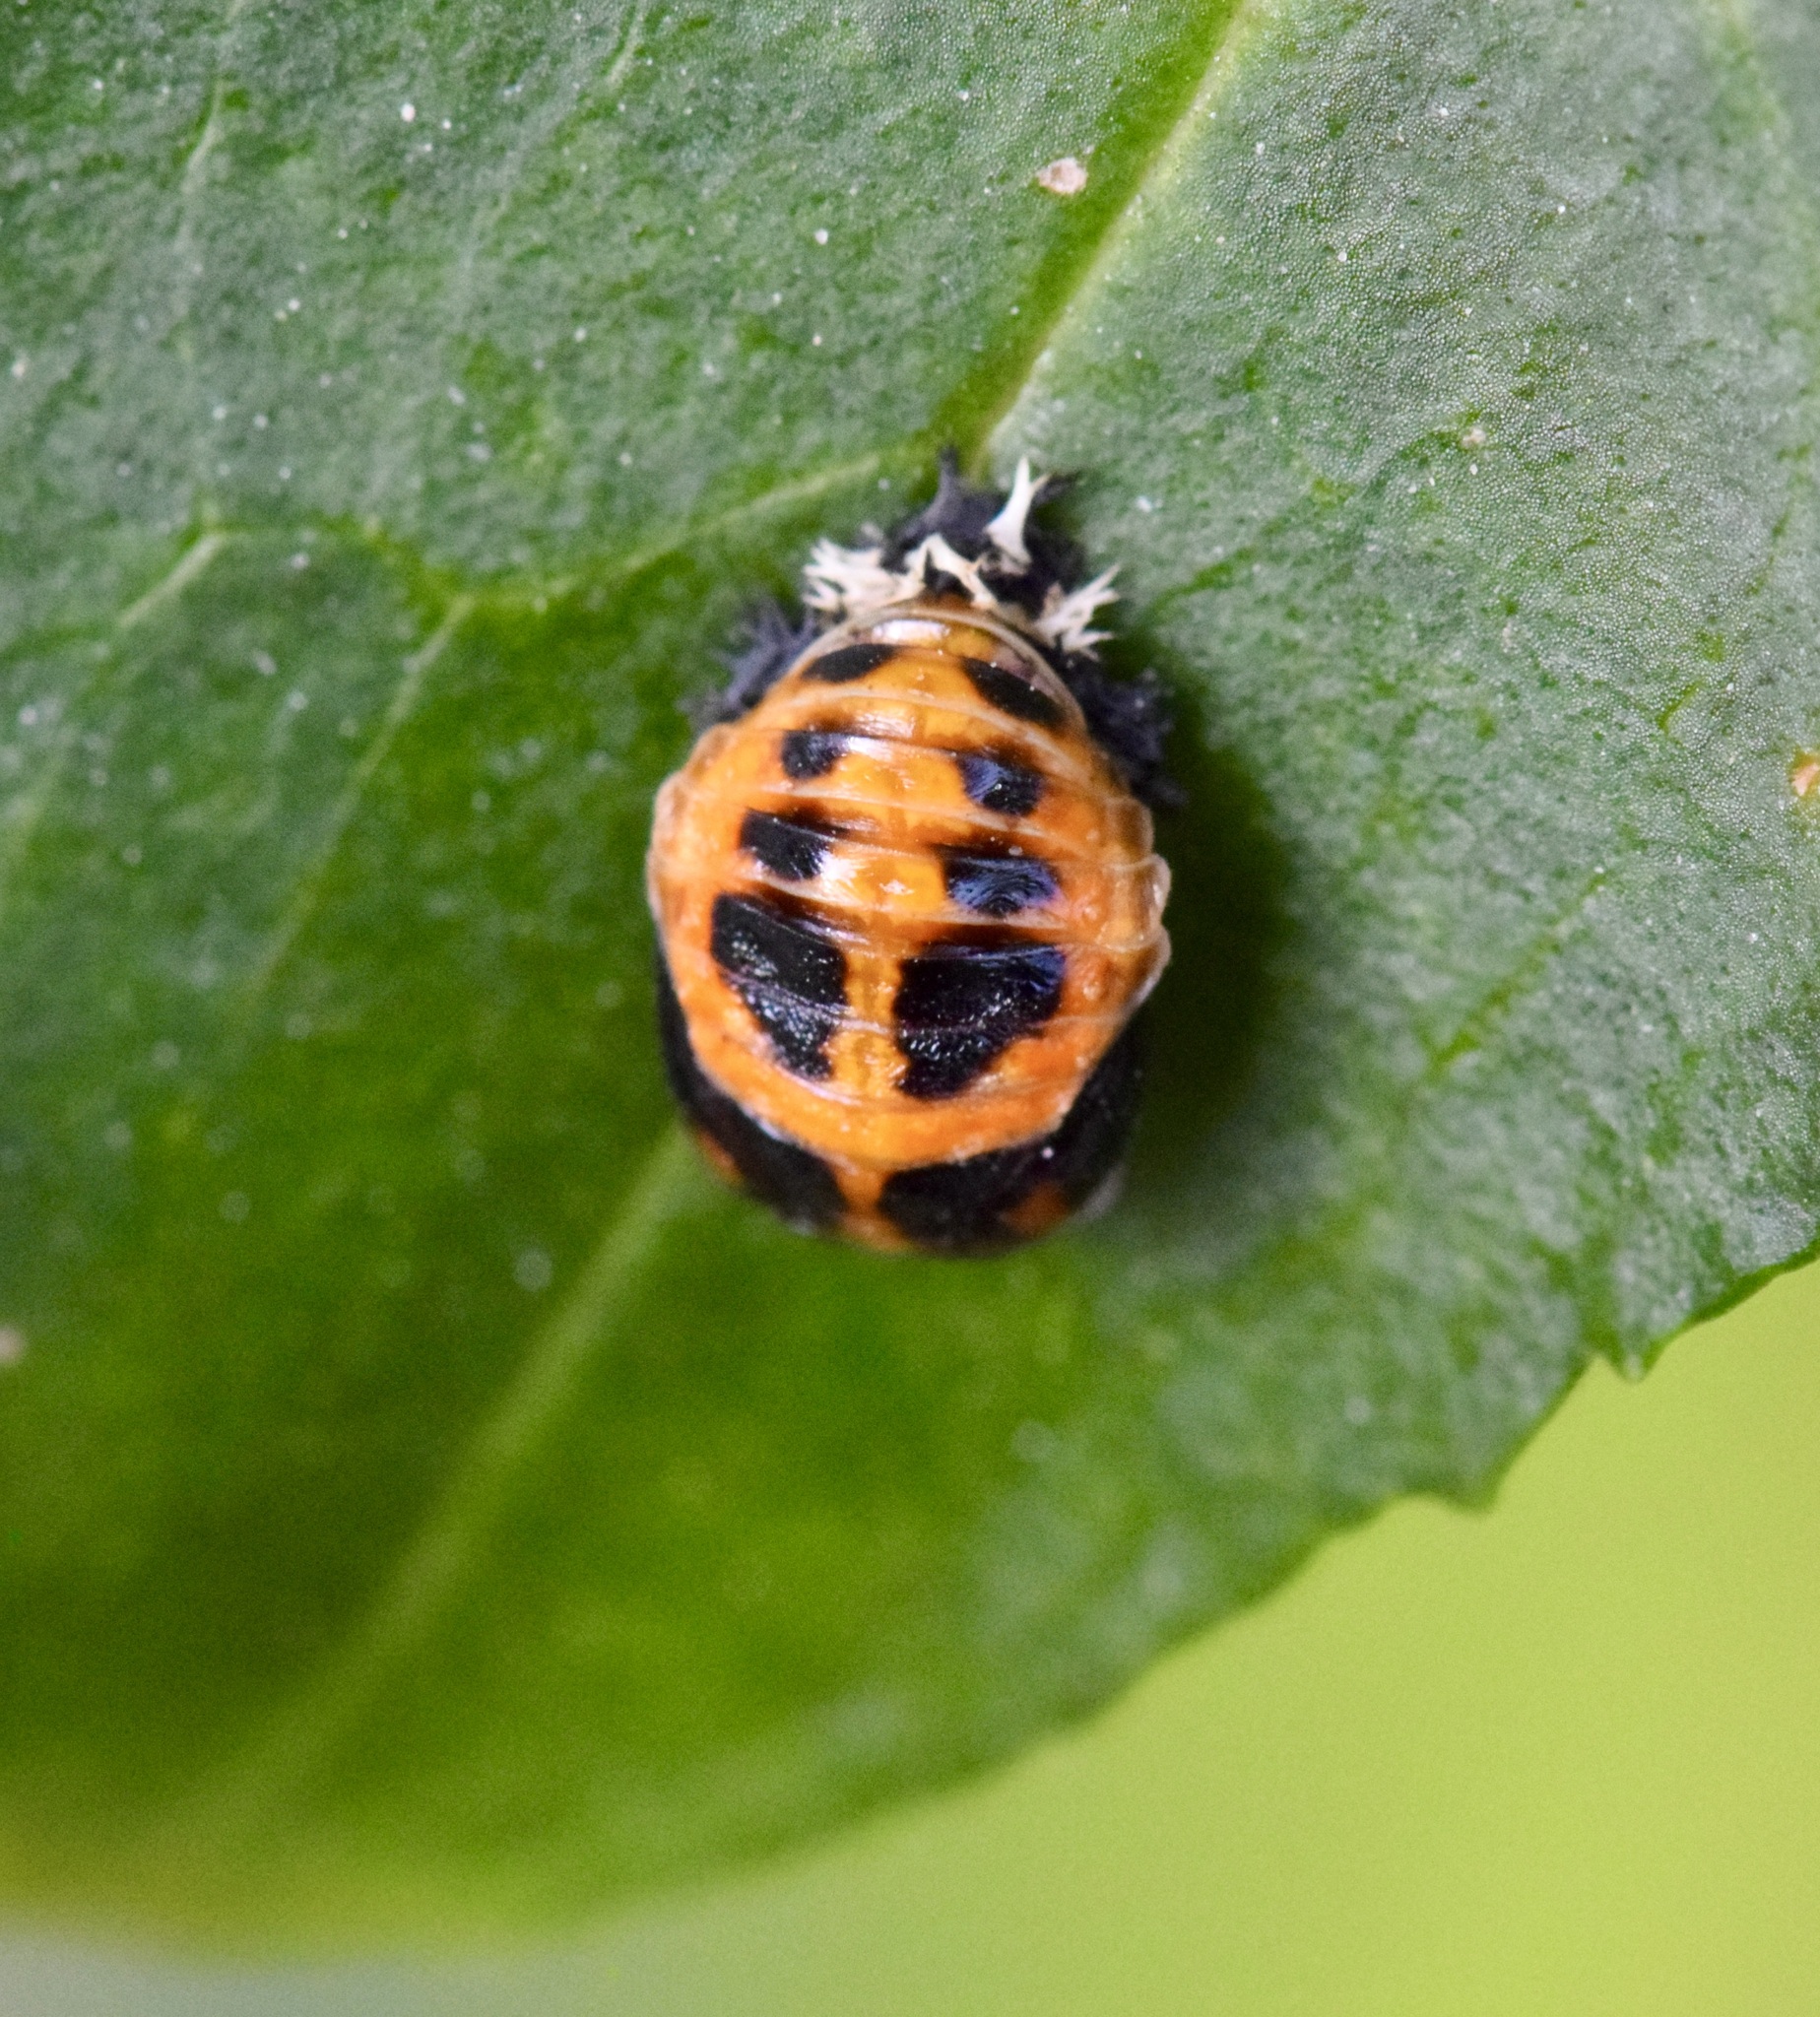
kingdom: Animalia
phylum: Arthropoda
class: Insecta
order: Coleoptera
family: Coccinellidae
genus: Harmonia
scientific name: Harmonia axyridis
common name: Harlequin ladybird
